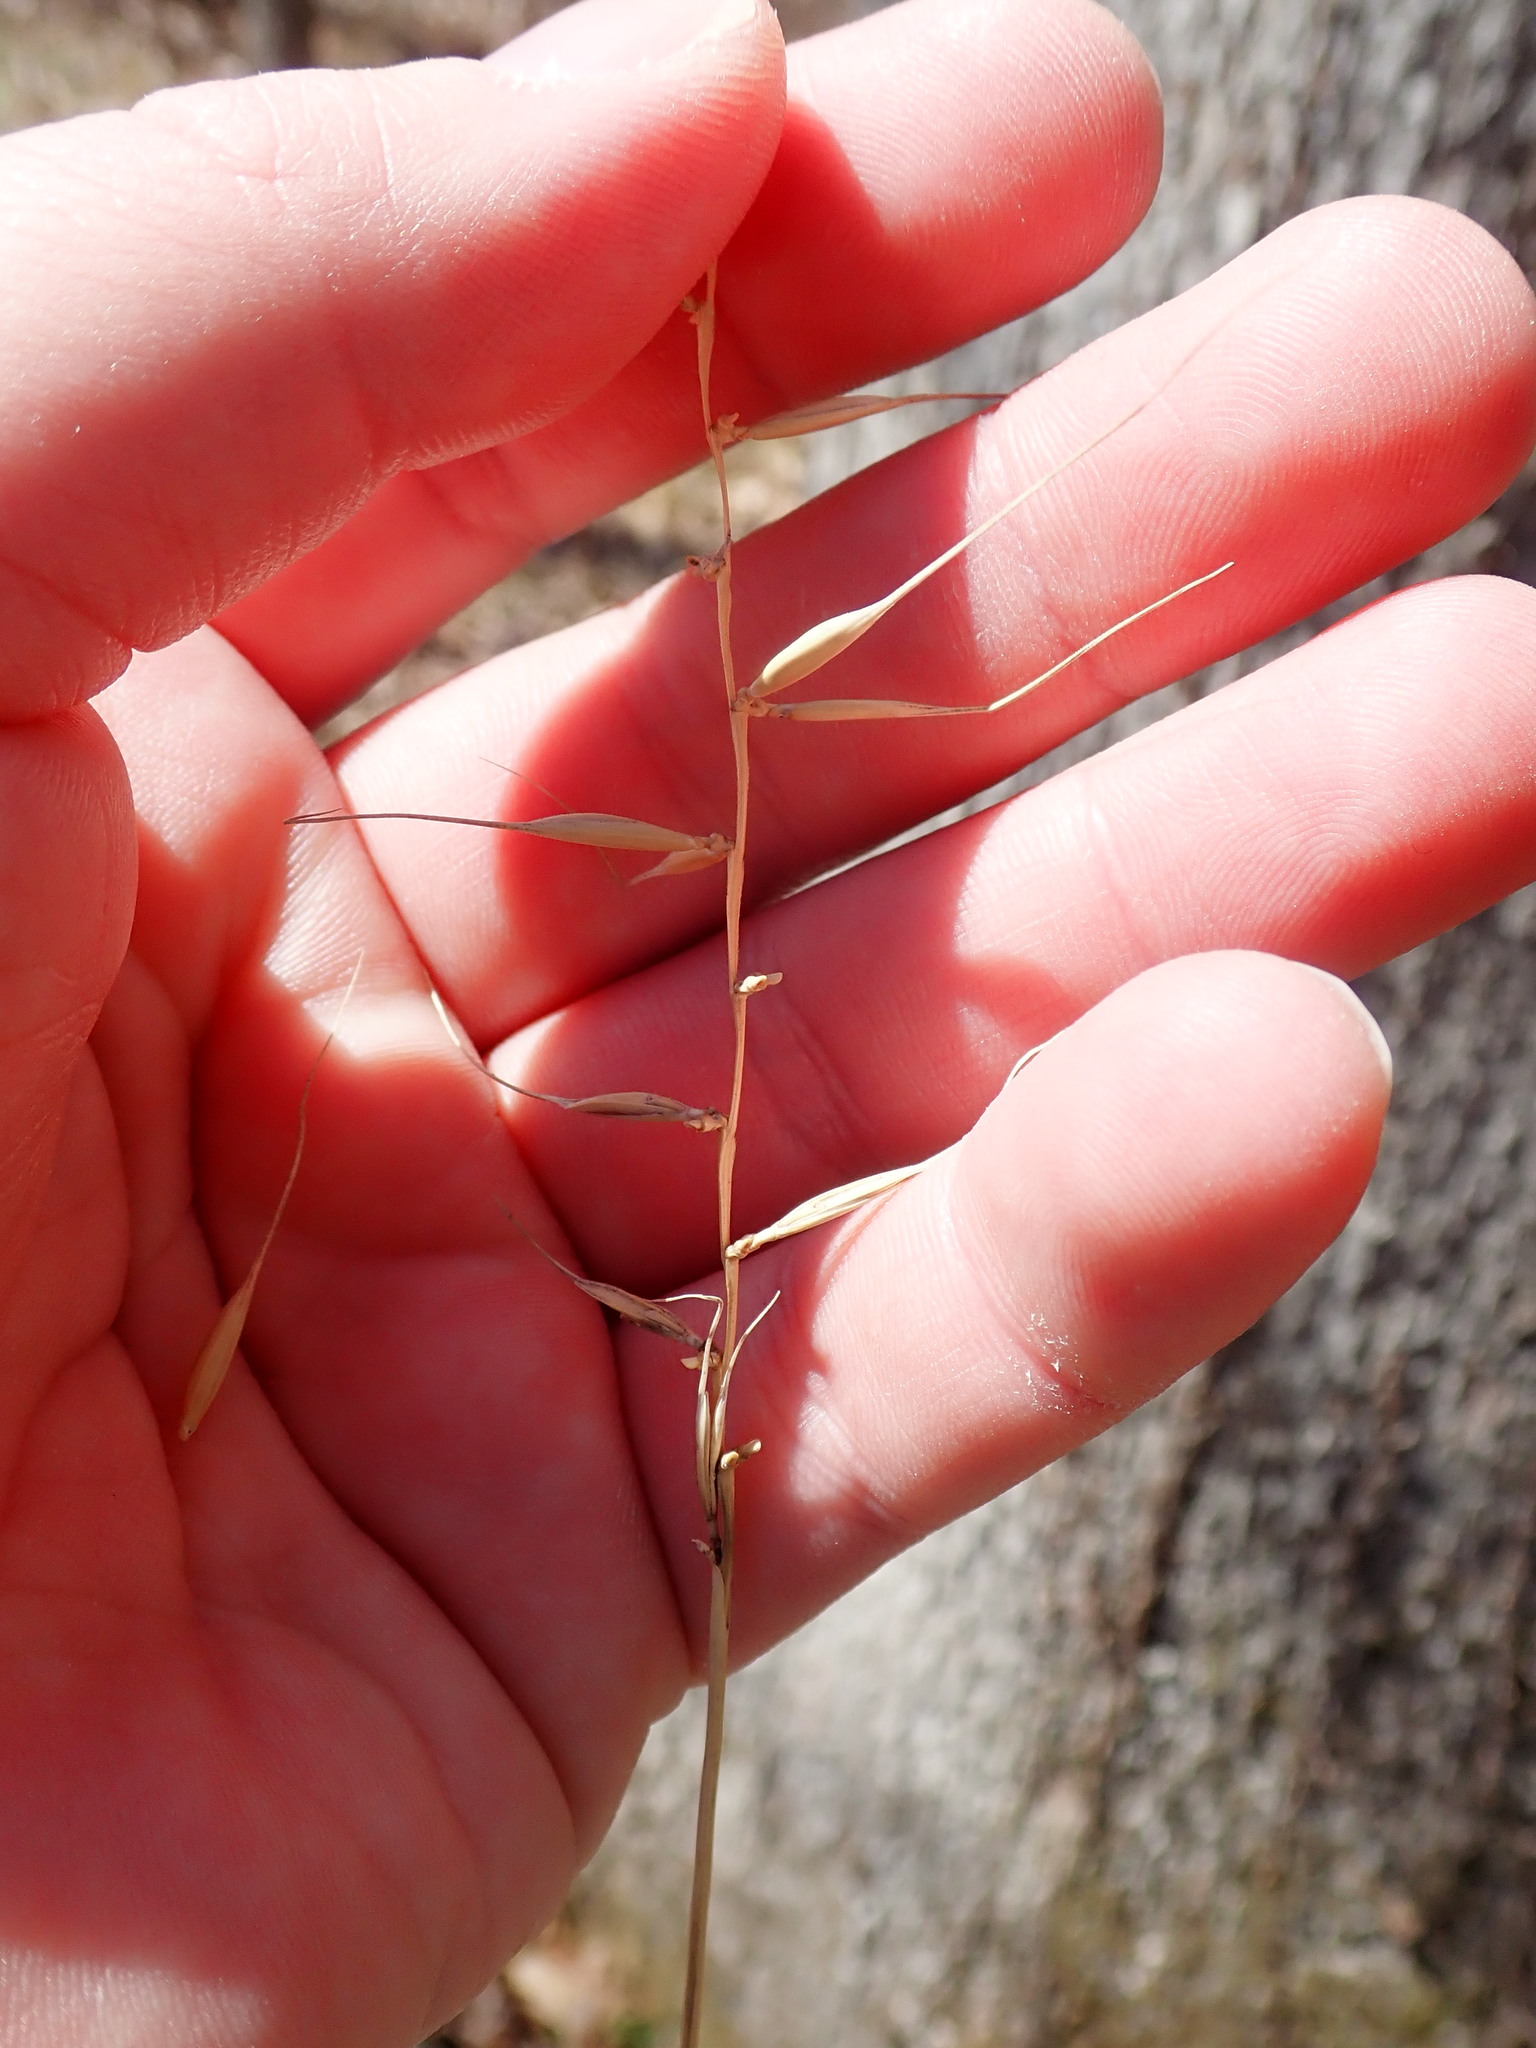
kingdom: Plantae
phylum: Tracheophyta
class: Liliopsida
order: Poales
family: Poaceae
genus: Elymus
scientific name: Elymus hystrix
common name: Bottlebrush grass
